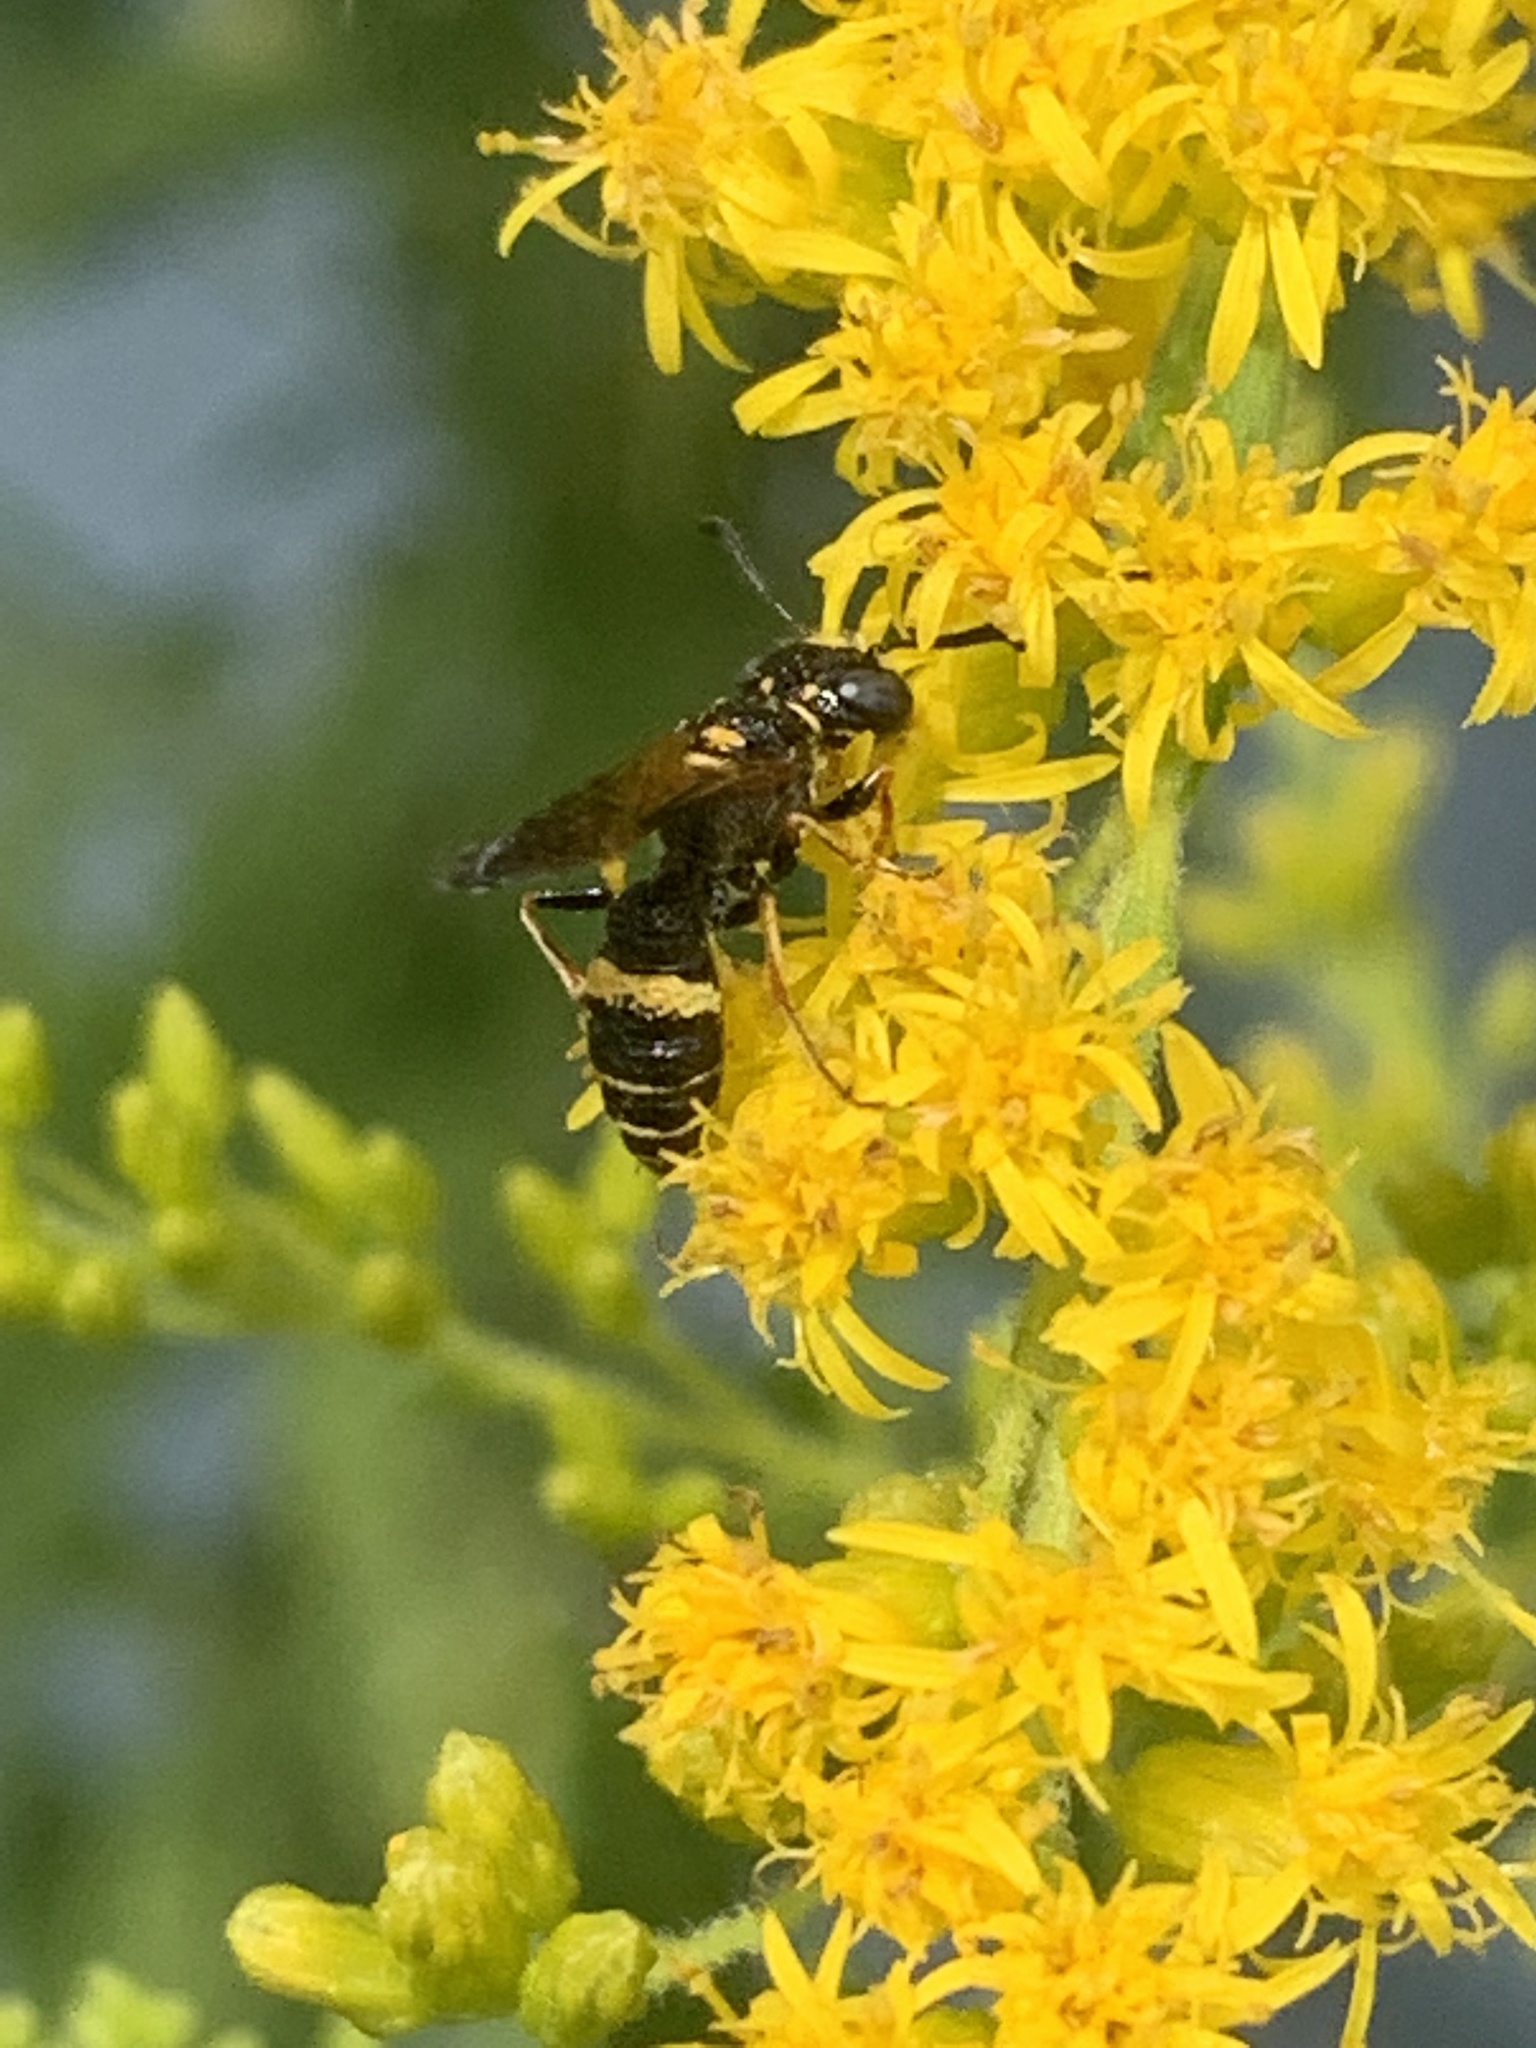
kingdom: Animalia
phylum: Arthropoda
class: Insecta
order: Hymenoptera
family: Crabronidae
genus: Philanthus
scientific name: Philanthus gibbosus
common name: Humped beewolf
